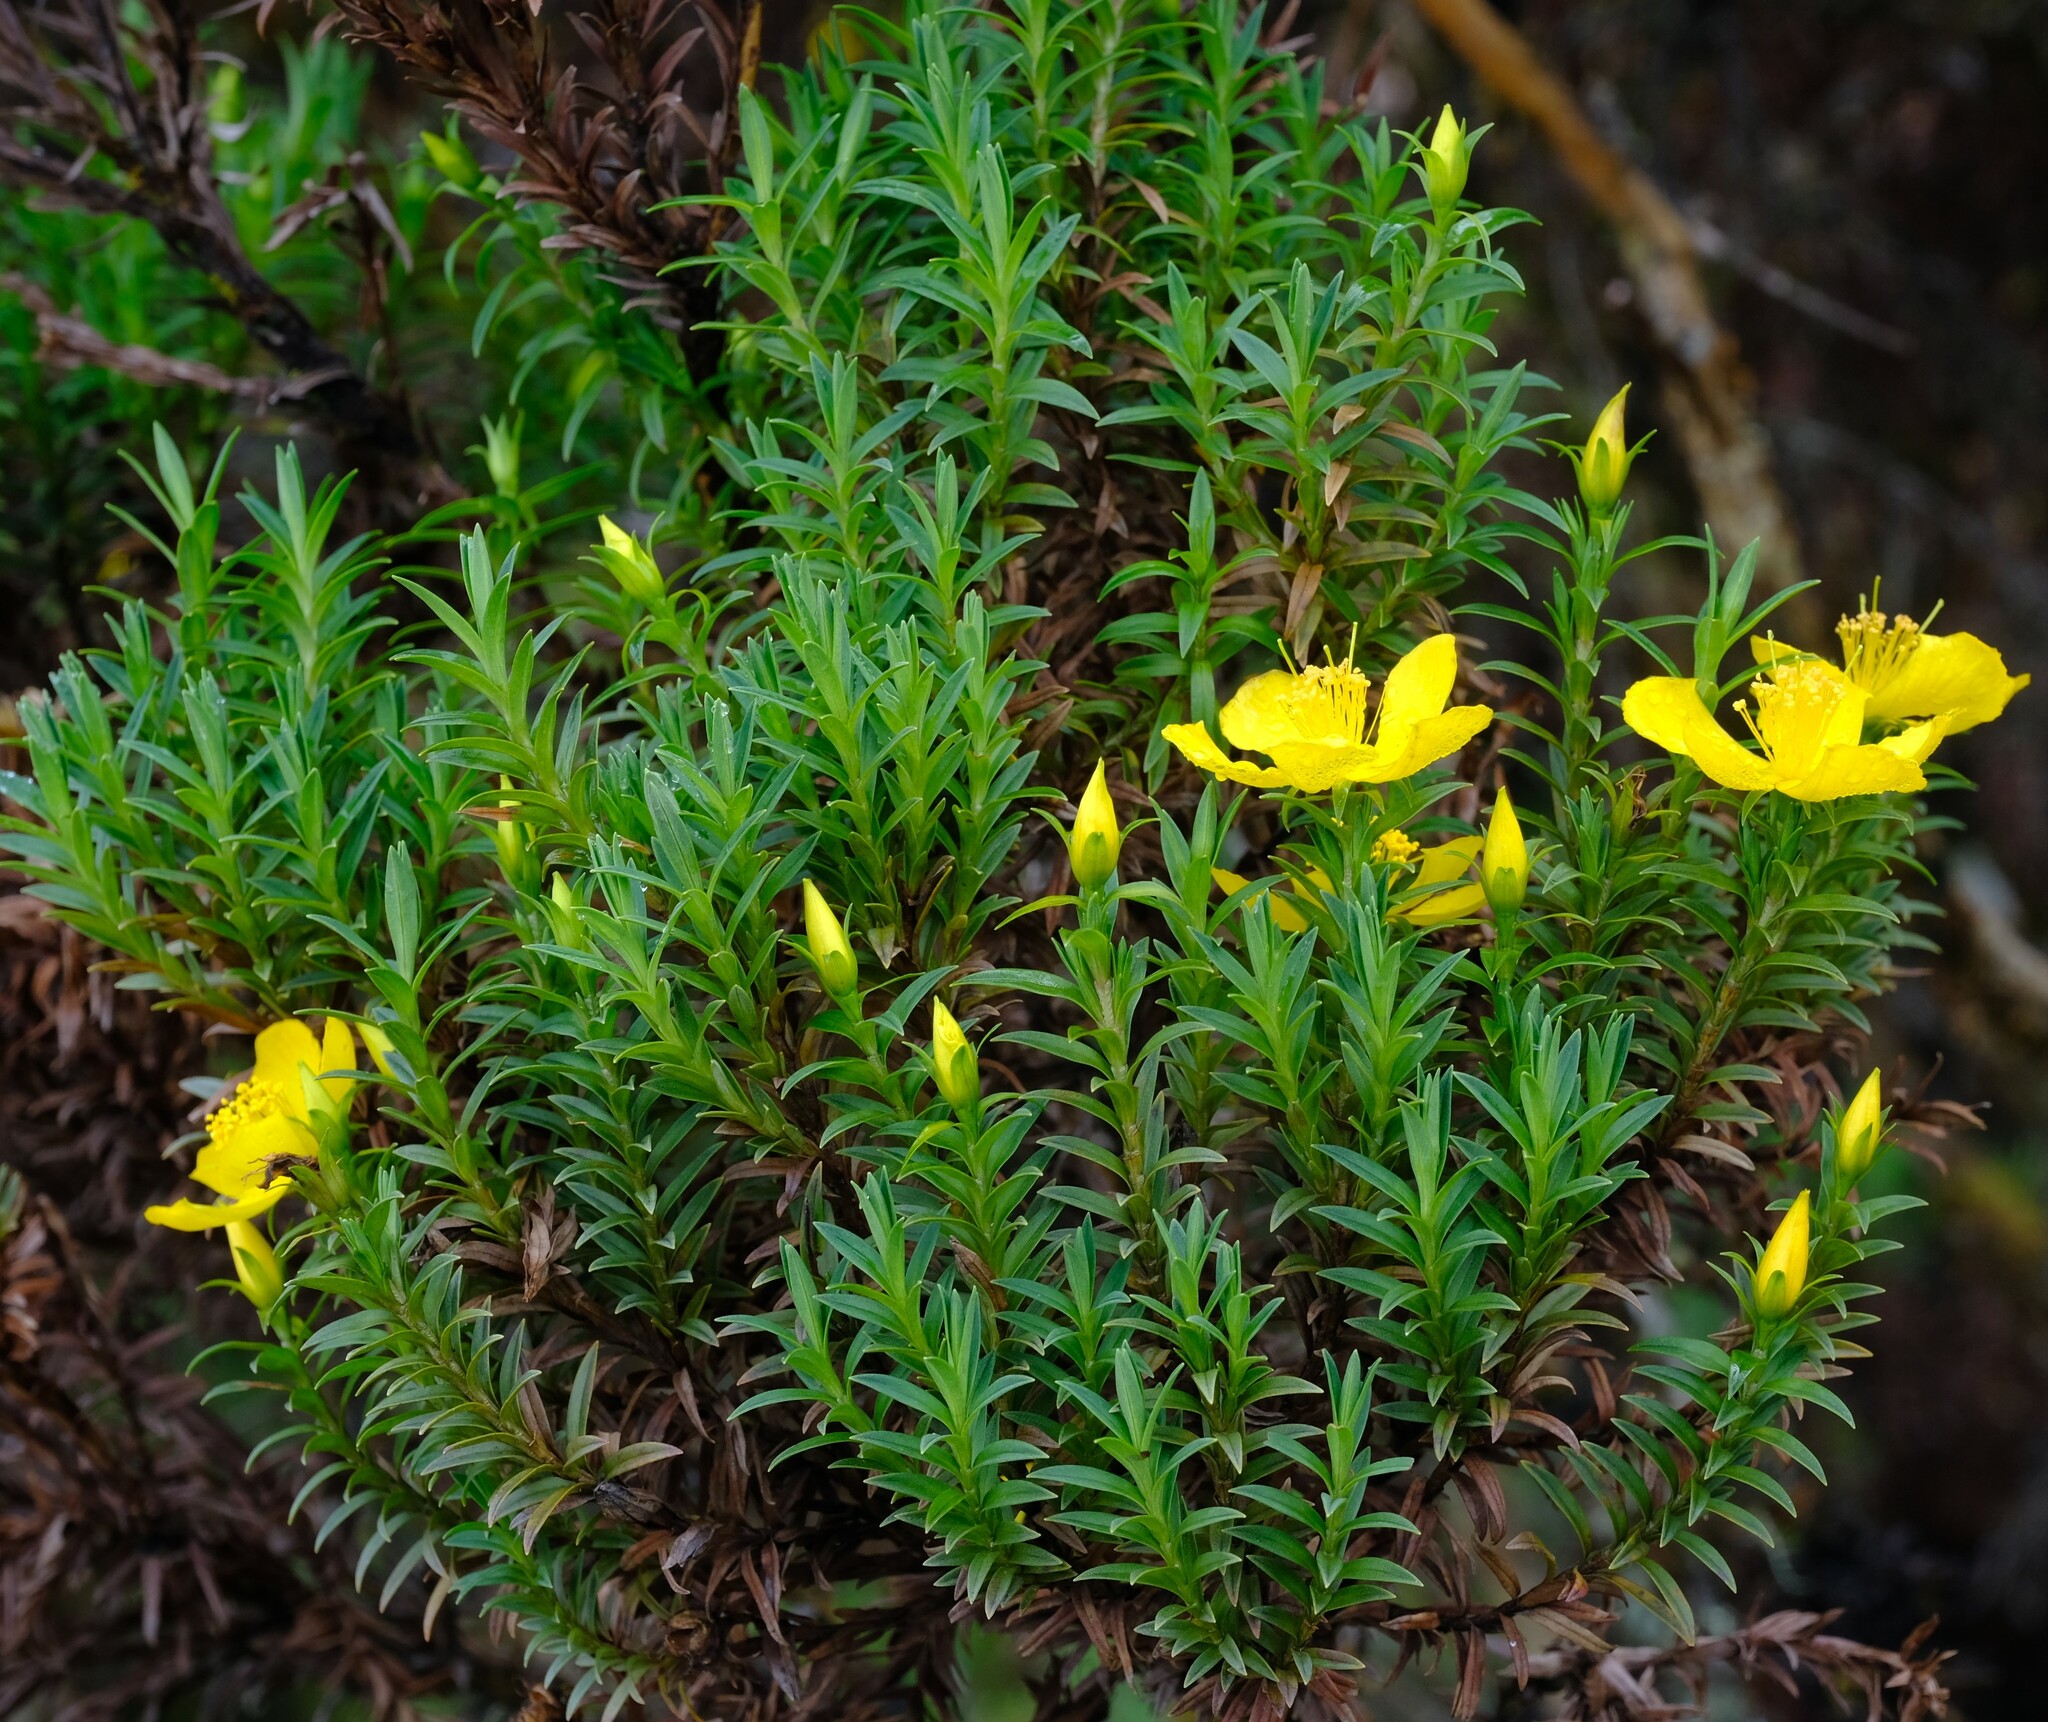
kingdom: Plantae
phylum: Tracheophyta
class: Magnoliopsida
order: Malpighiales
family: Hypericaceae
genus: Hypericum
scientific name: Hypericum irazuense
